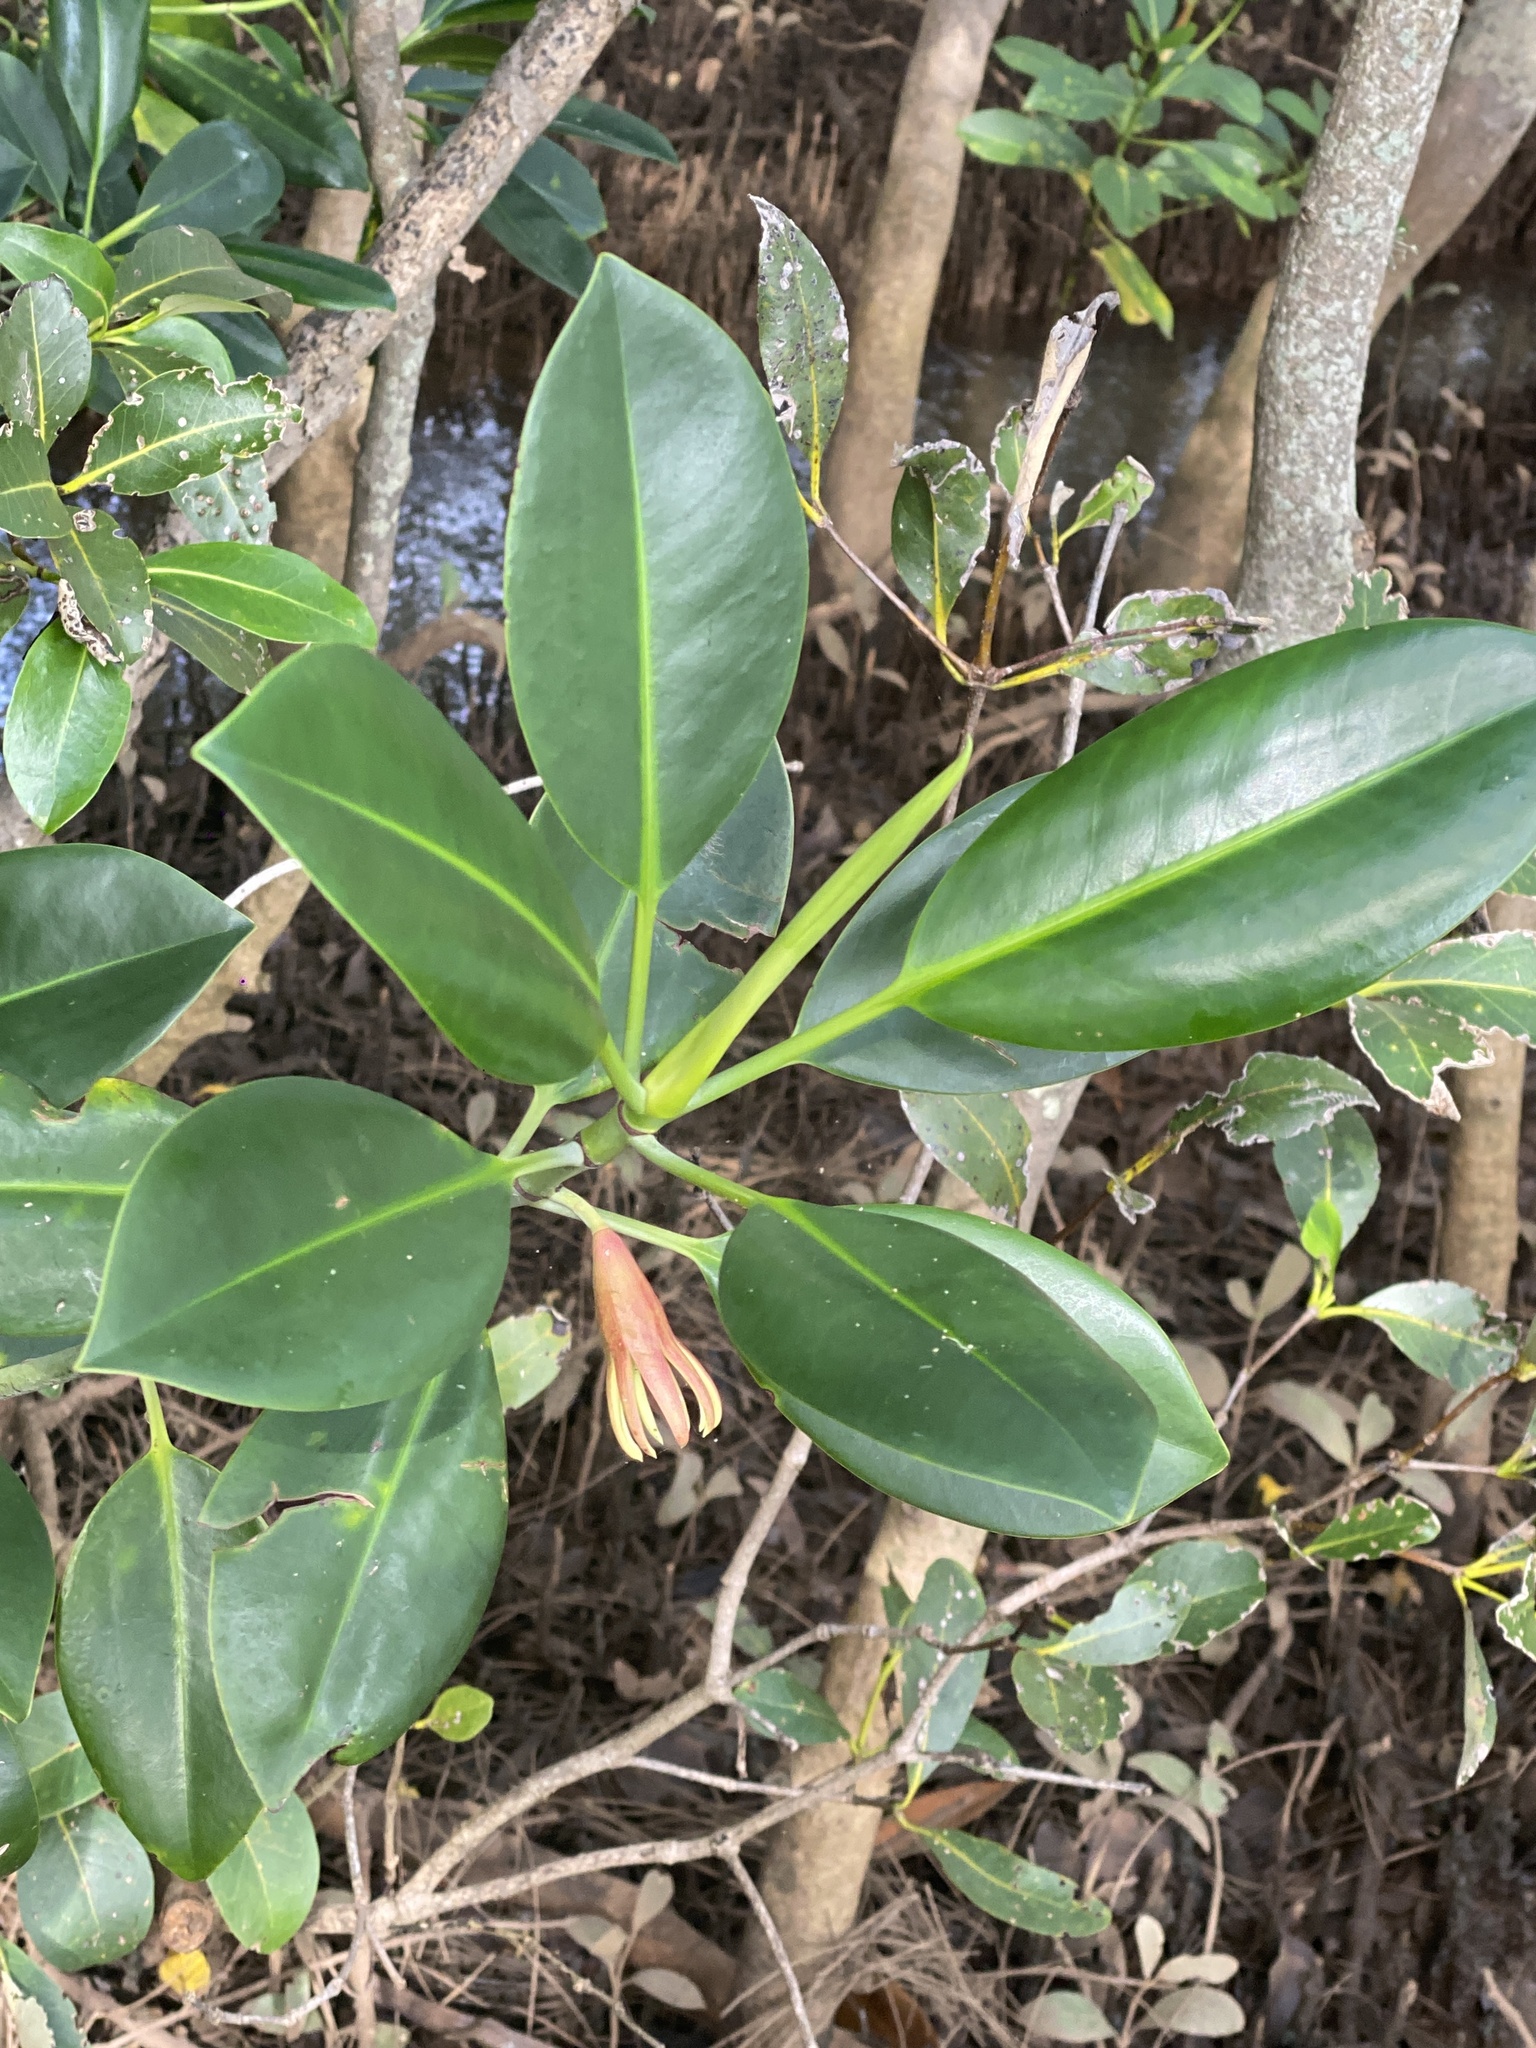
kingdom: Plantae
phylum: Tracheophyta
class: Magnoliopsida
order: Malpighiales
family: Rhizophoraceae
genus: Bruguiera
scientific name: Bruguiera gymnorhiza
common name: Oriental mangrove
